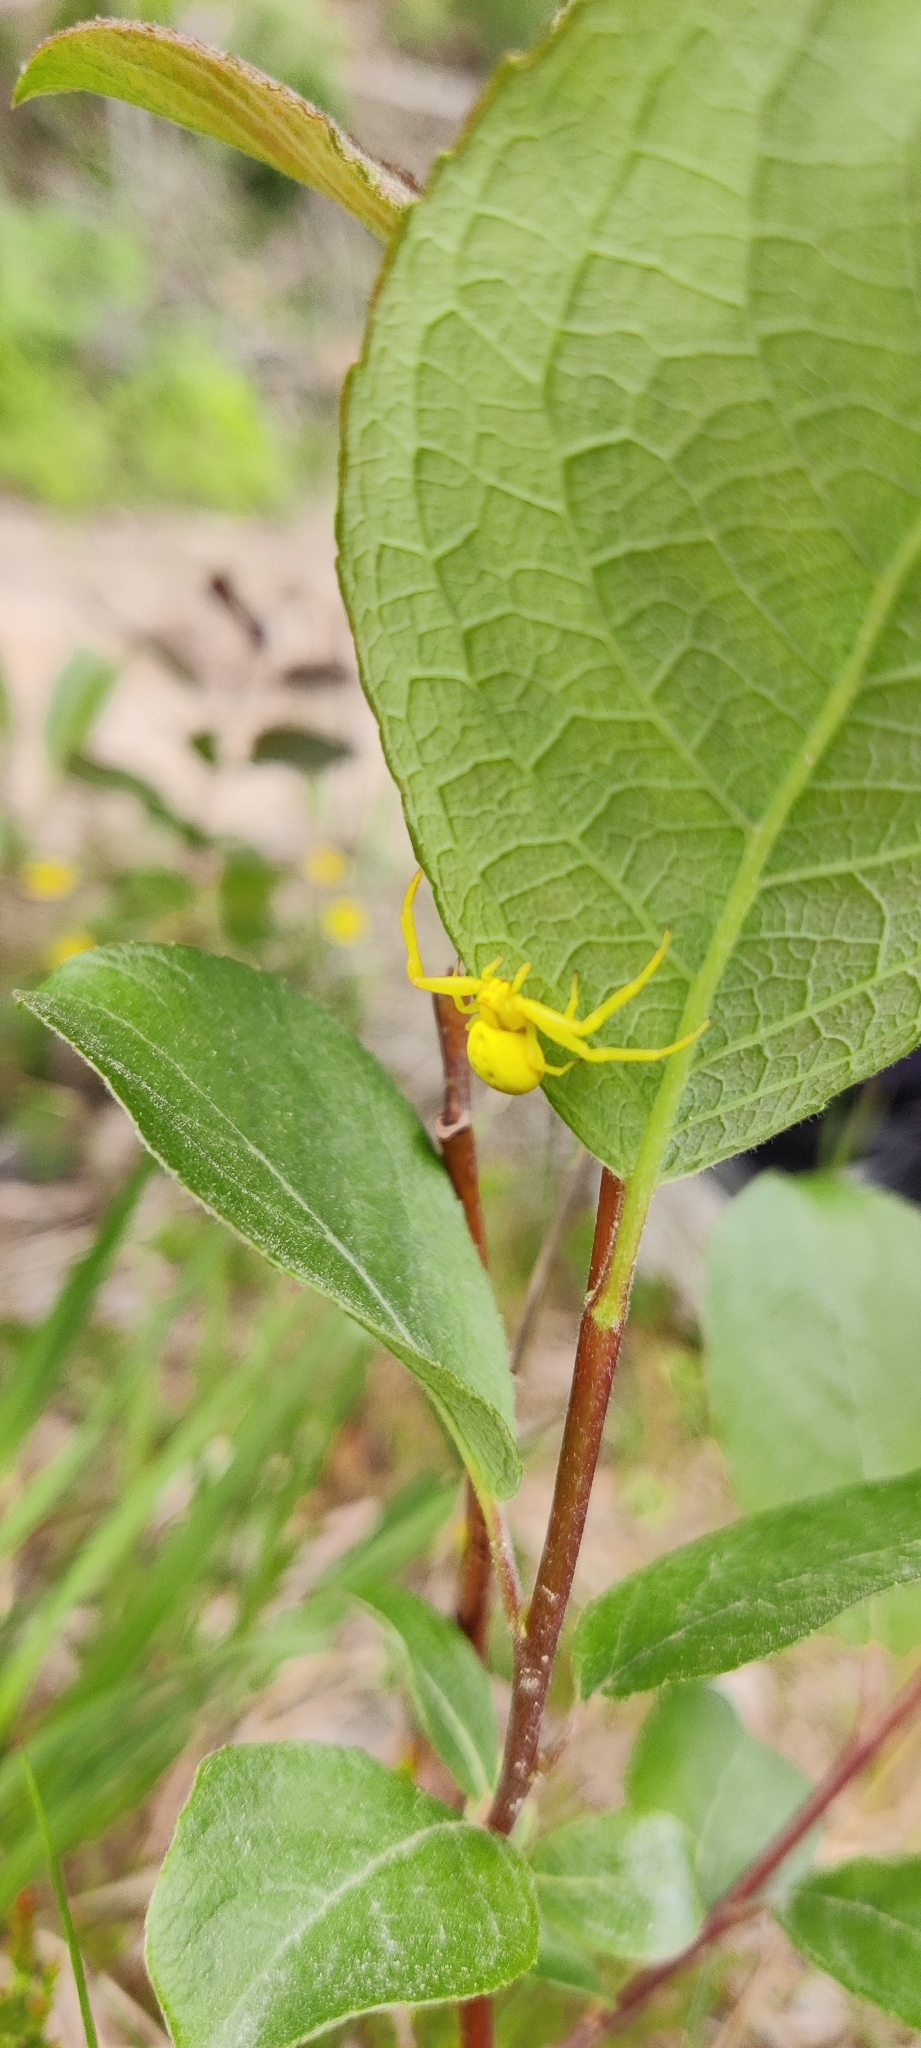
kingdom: Animalia
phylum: Arthropoda
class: Arachnida
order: Araneae
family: Thomisidae
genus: Misumena
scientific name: Misumena vatia
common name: Goldenrod crab spider
